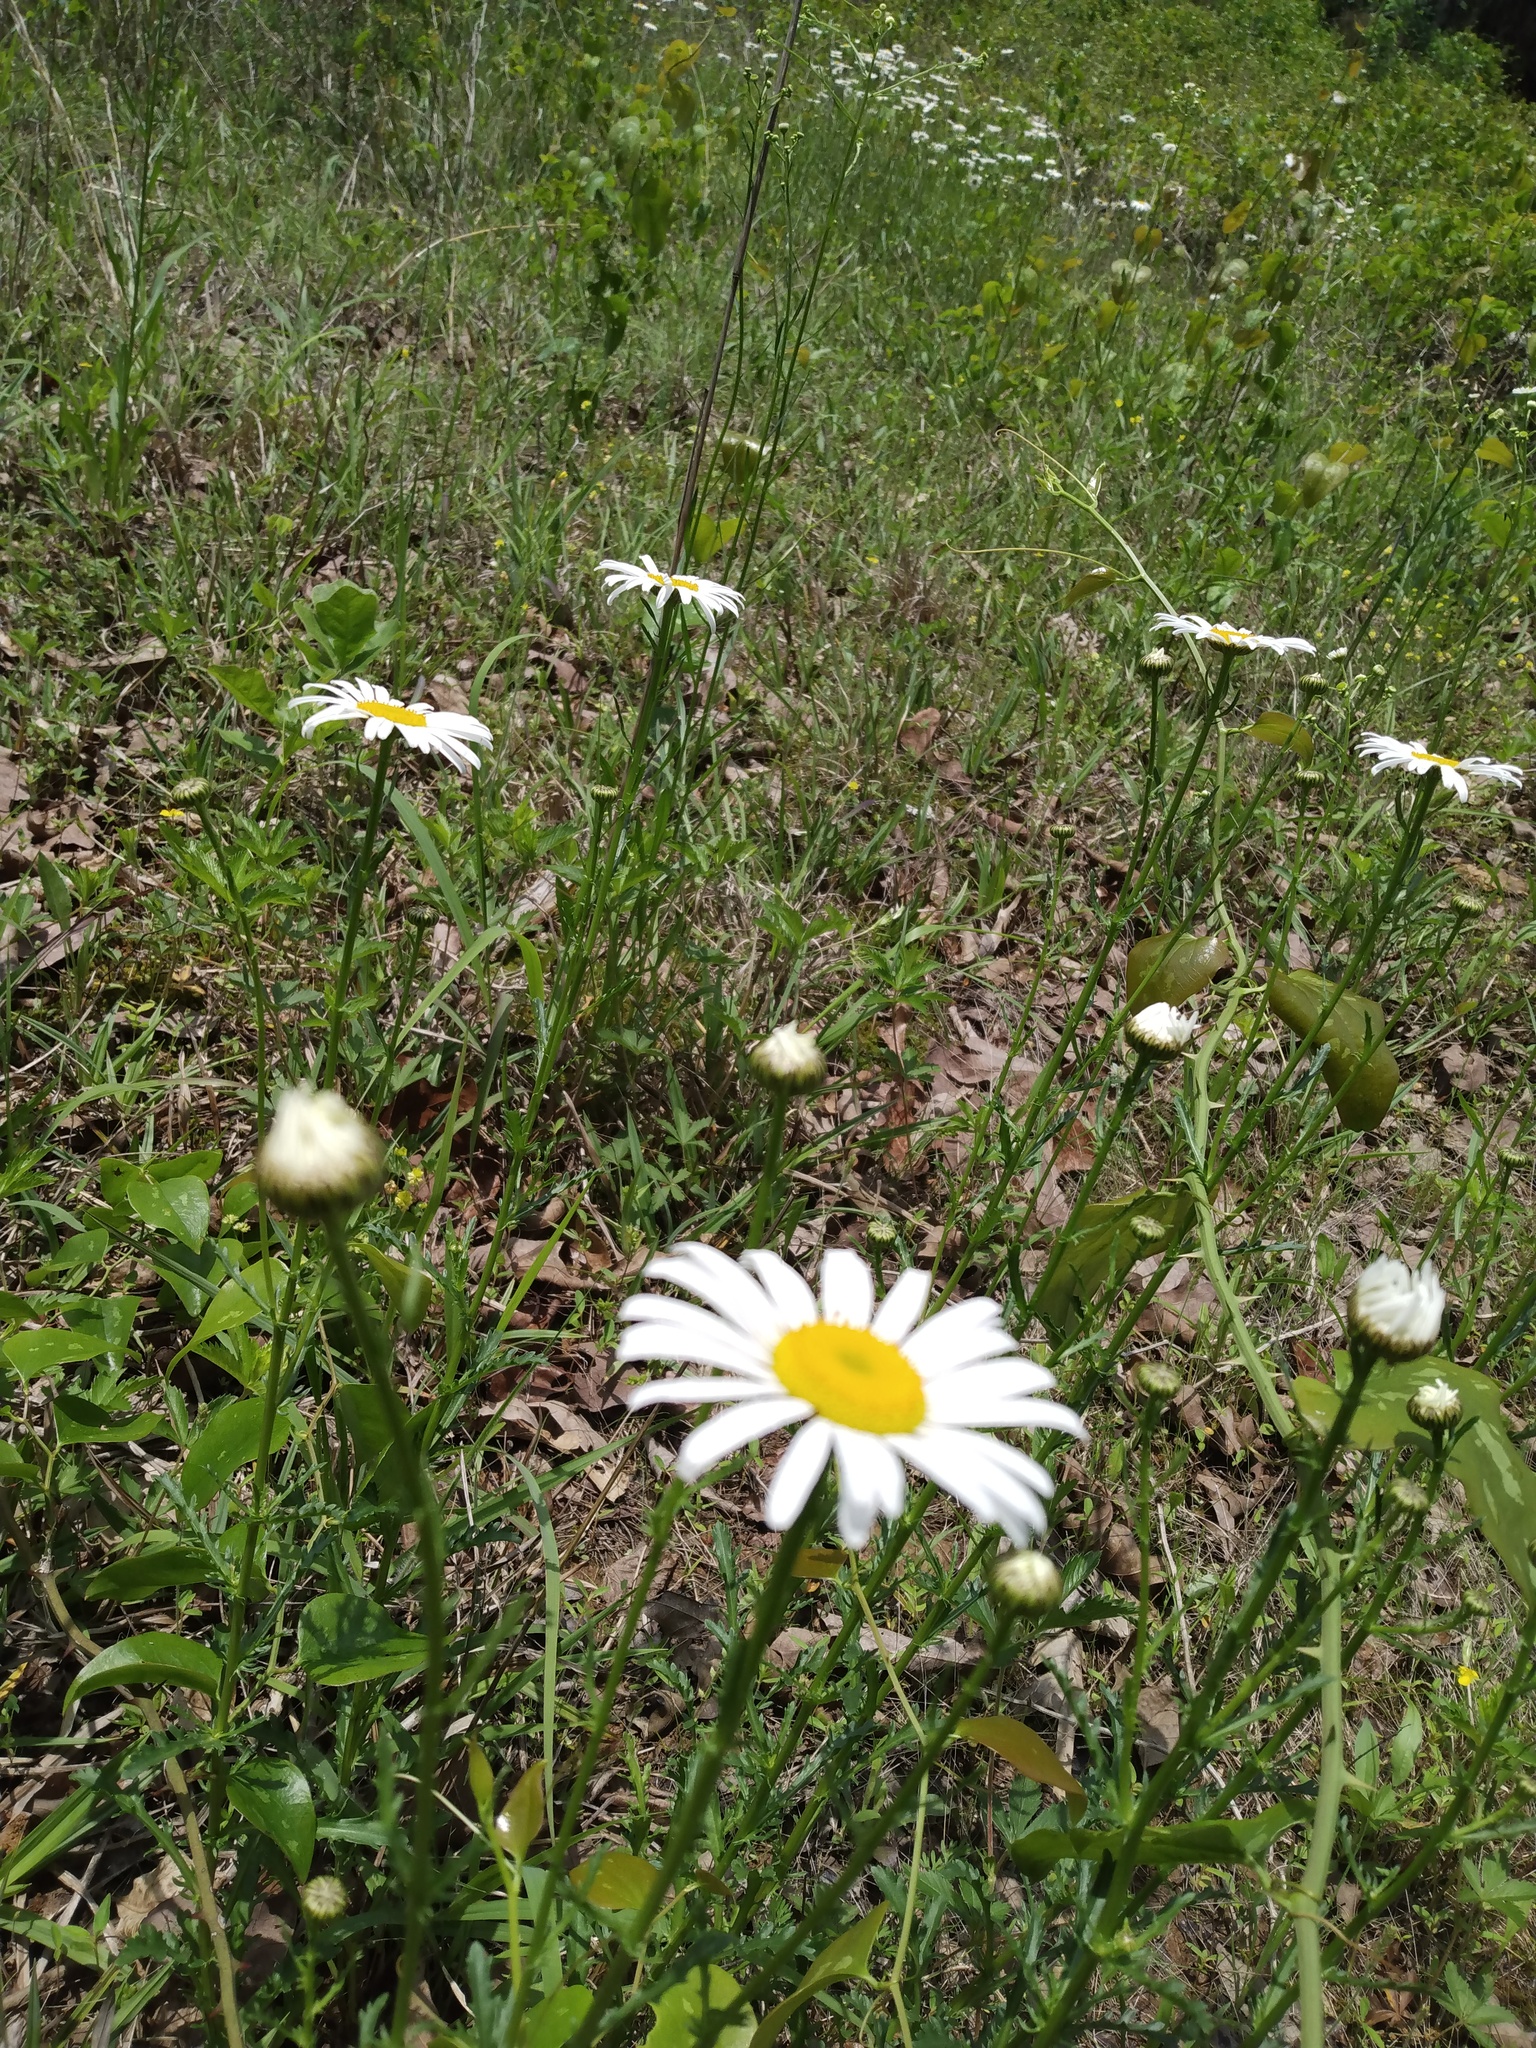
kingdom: Plantae
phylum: Tracheophyta
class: Magnoliopsida
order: Asterales
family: Asteraceae
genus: Leucanthemum
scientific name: Leucanthemum vulgare
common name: Oxeye daisy
